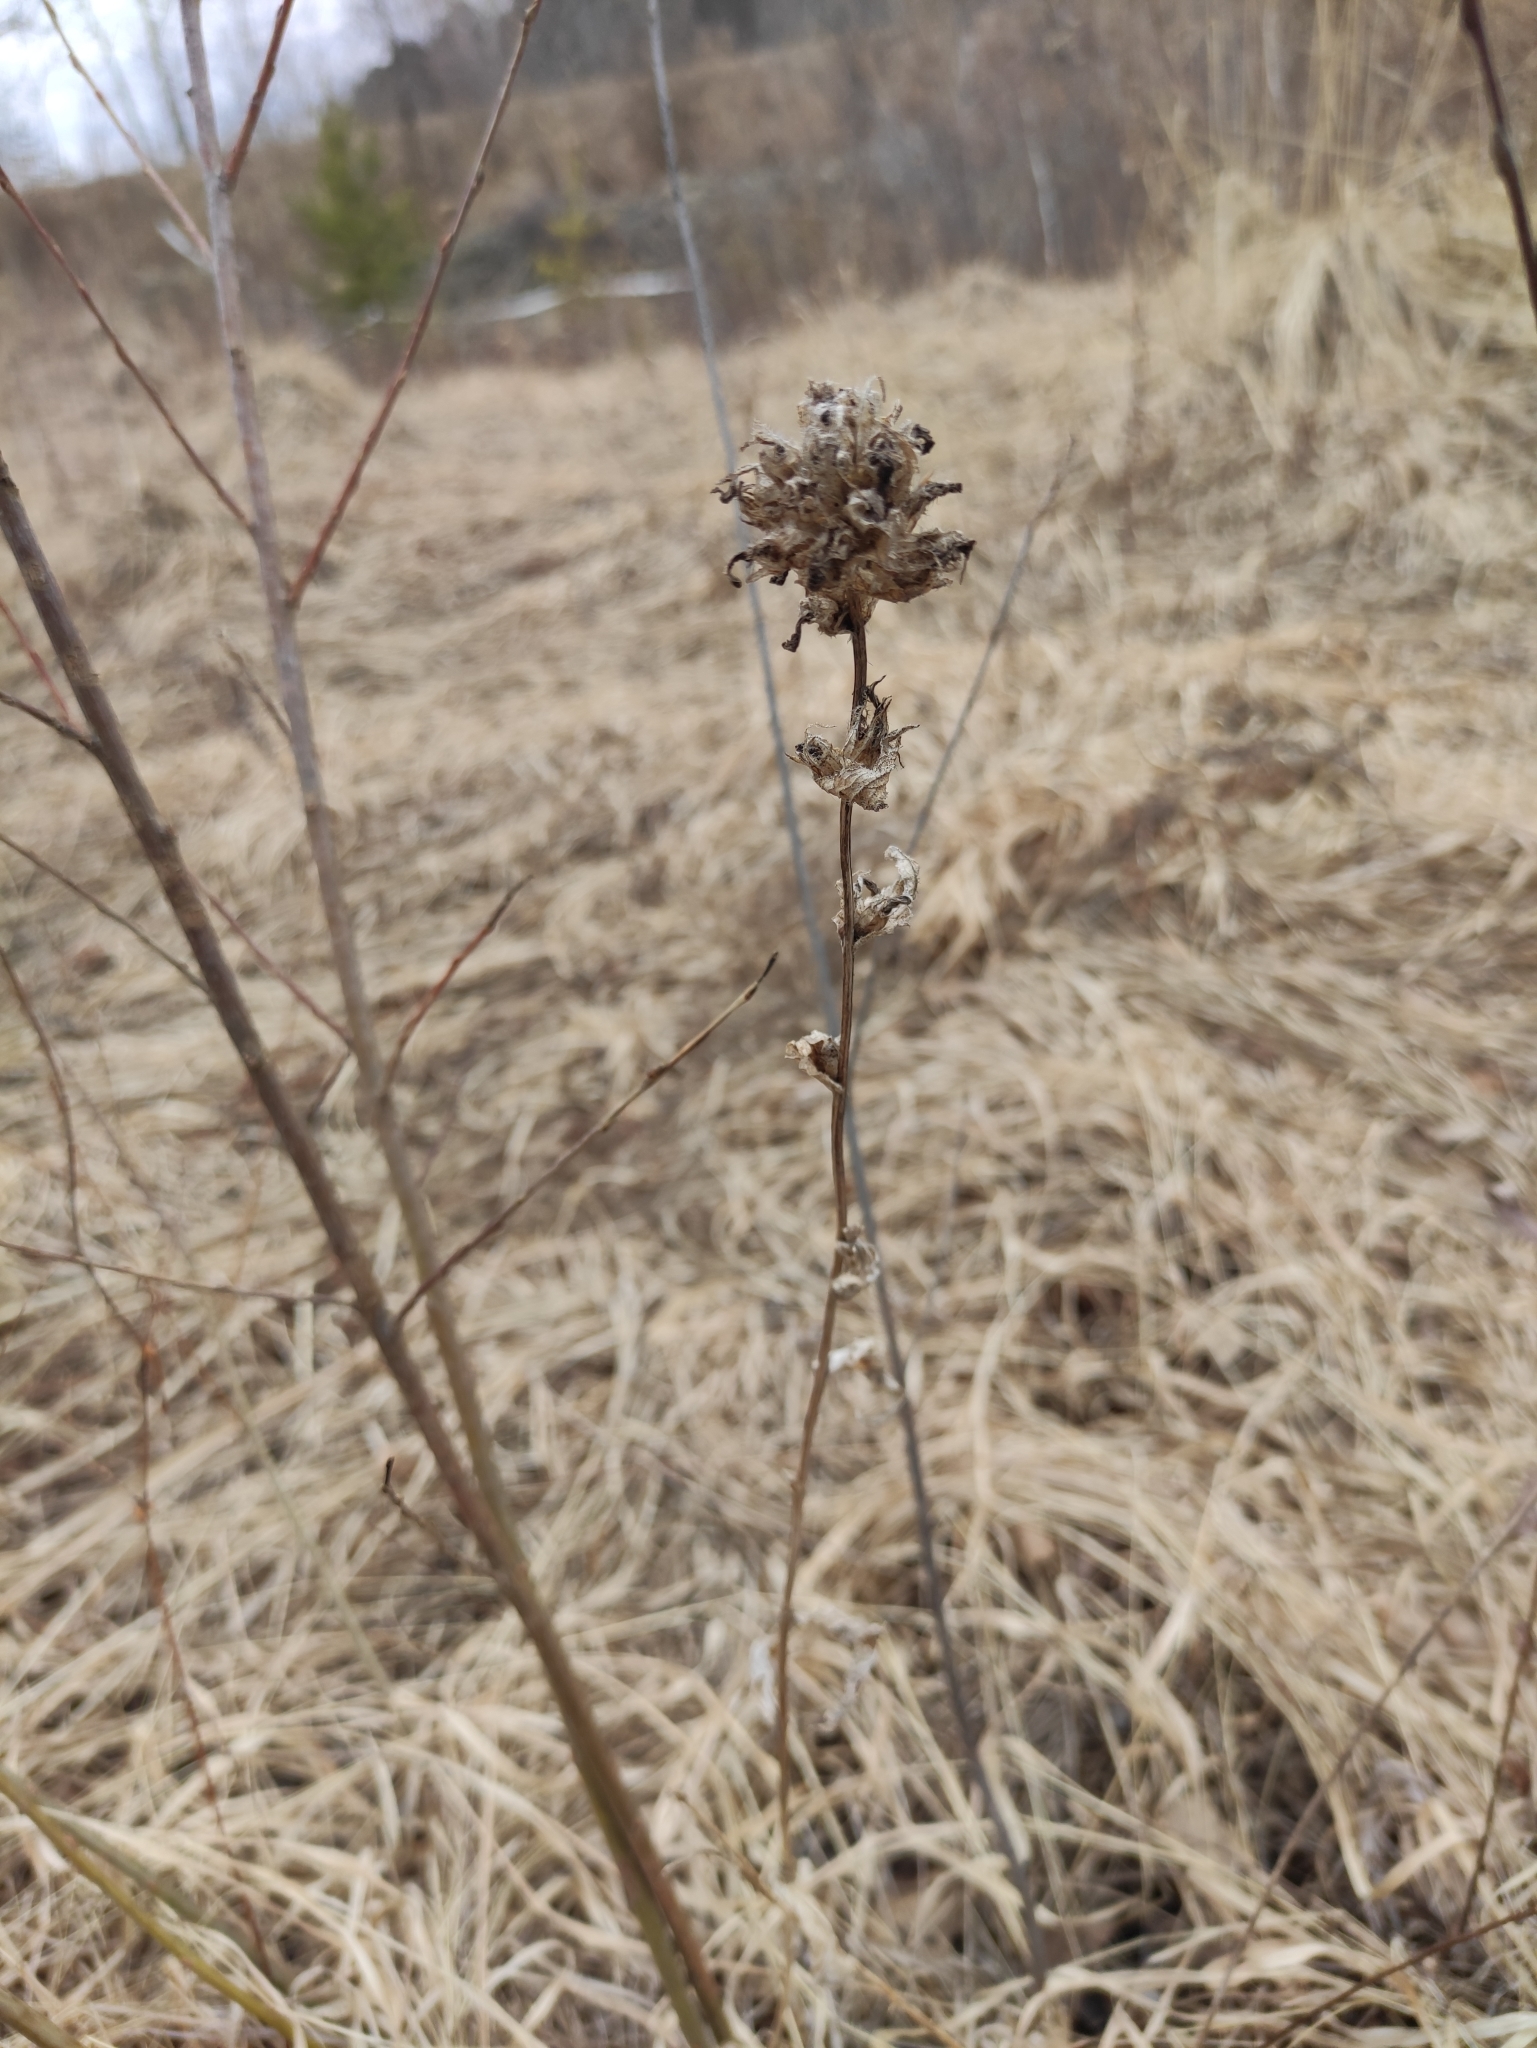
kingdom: Plantae
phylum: Tracheophyta
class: Magnoliopsida
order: Asterales
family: Campanulaceae
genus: Campanula
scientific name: Campanula glomerata
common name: Clustered bellflower
